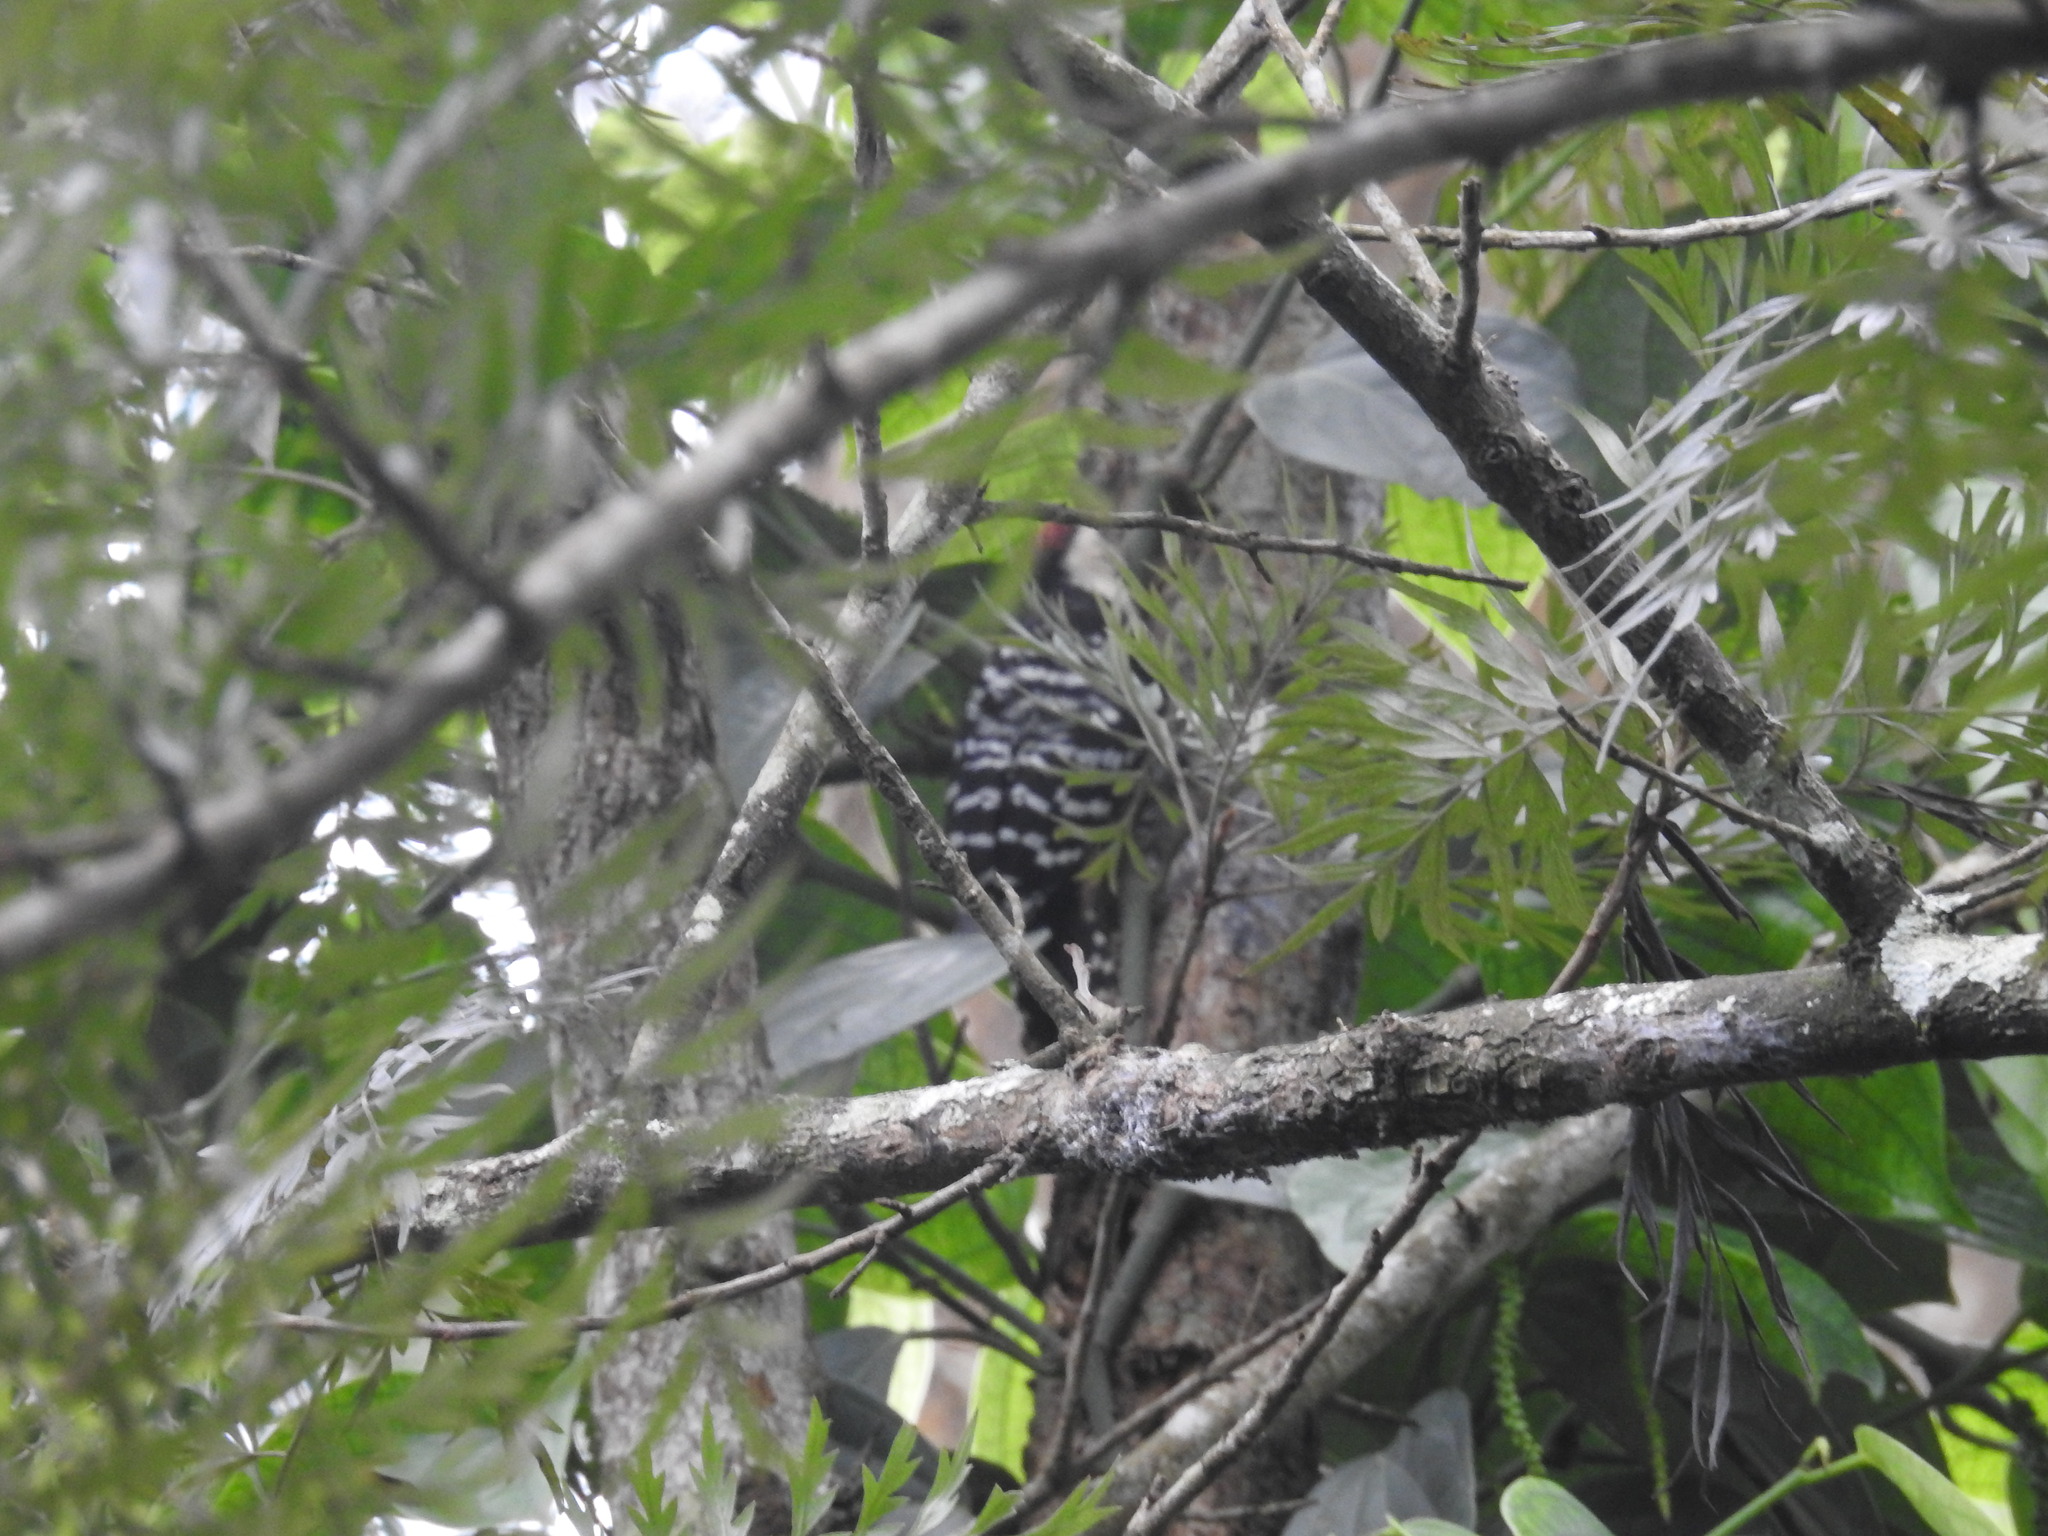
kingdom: Animalia
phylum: Chordata
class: Aves
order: Piciformes
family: Picidae
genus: Dendrocopos
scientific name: Dendrocopos macei
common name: Fulvous-breasted woodpecker
